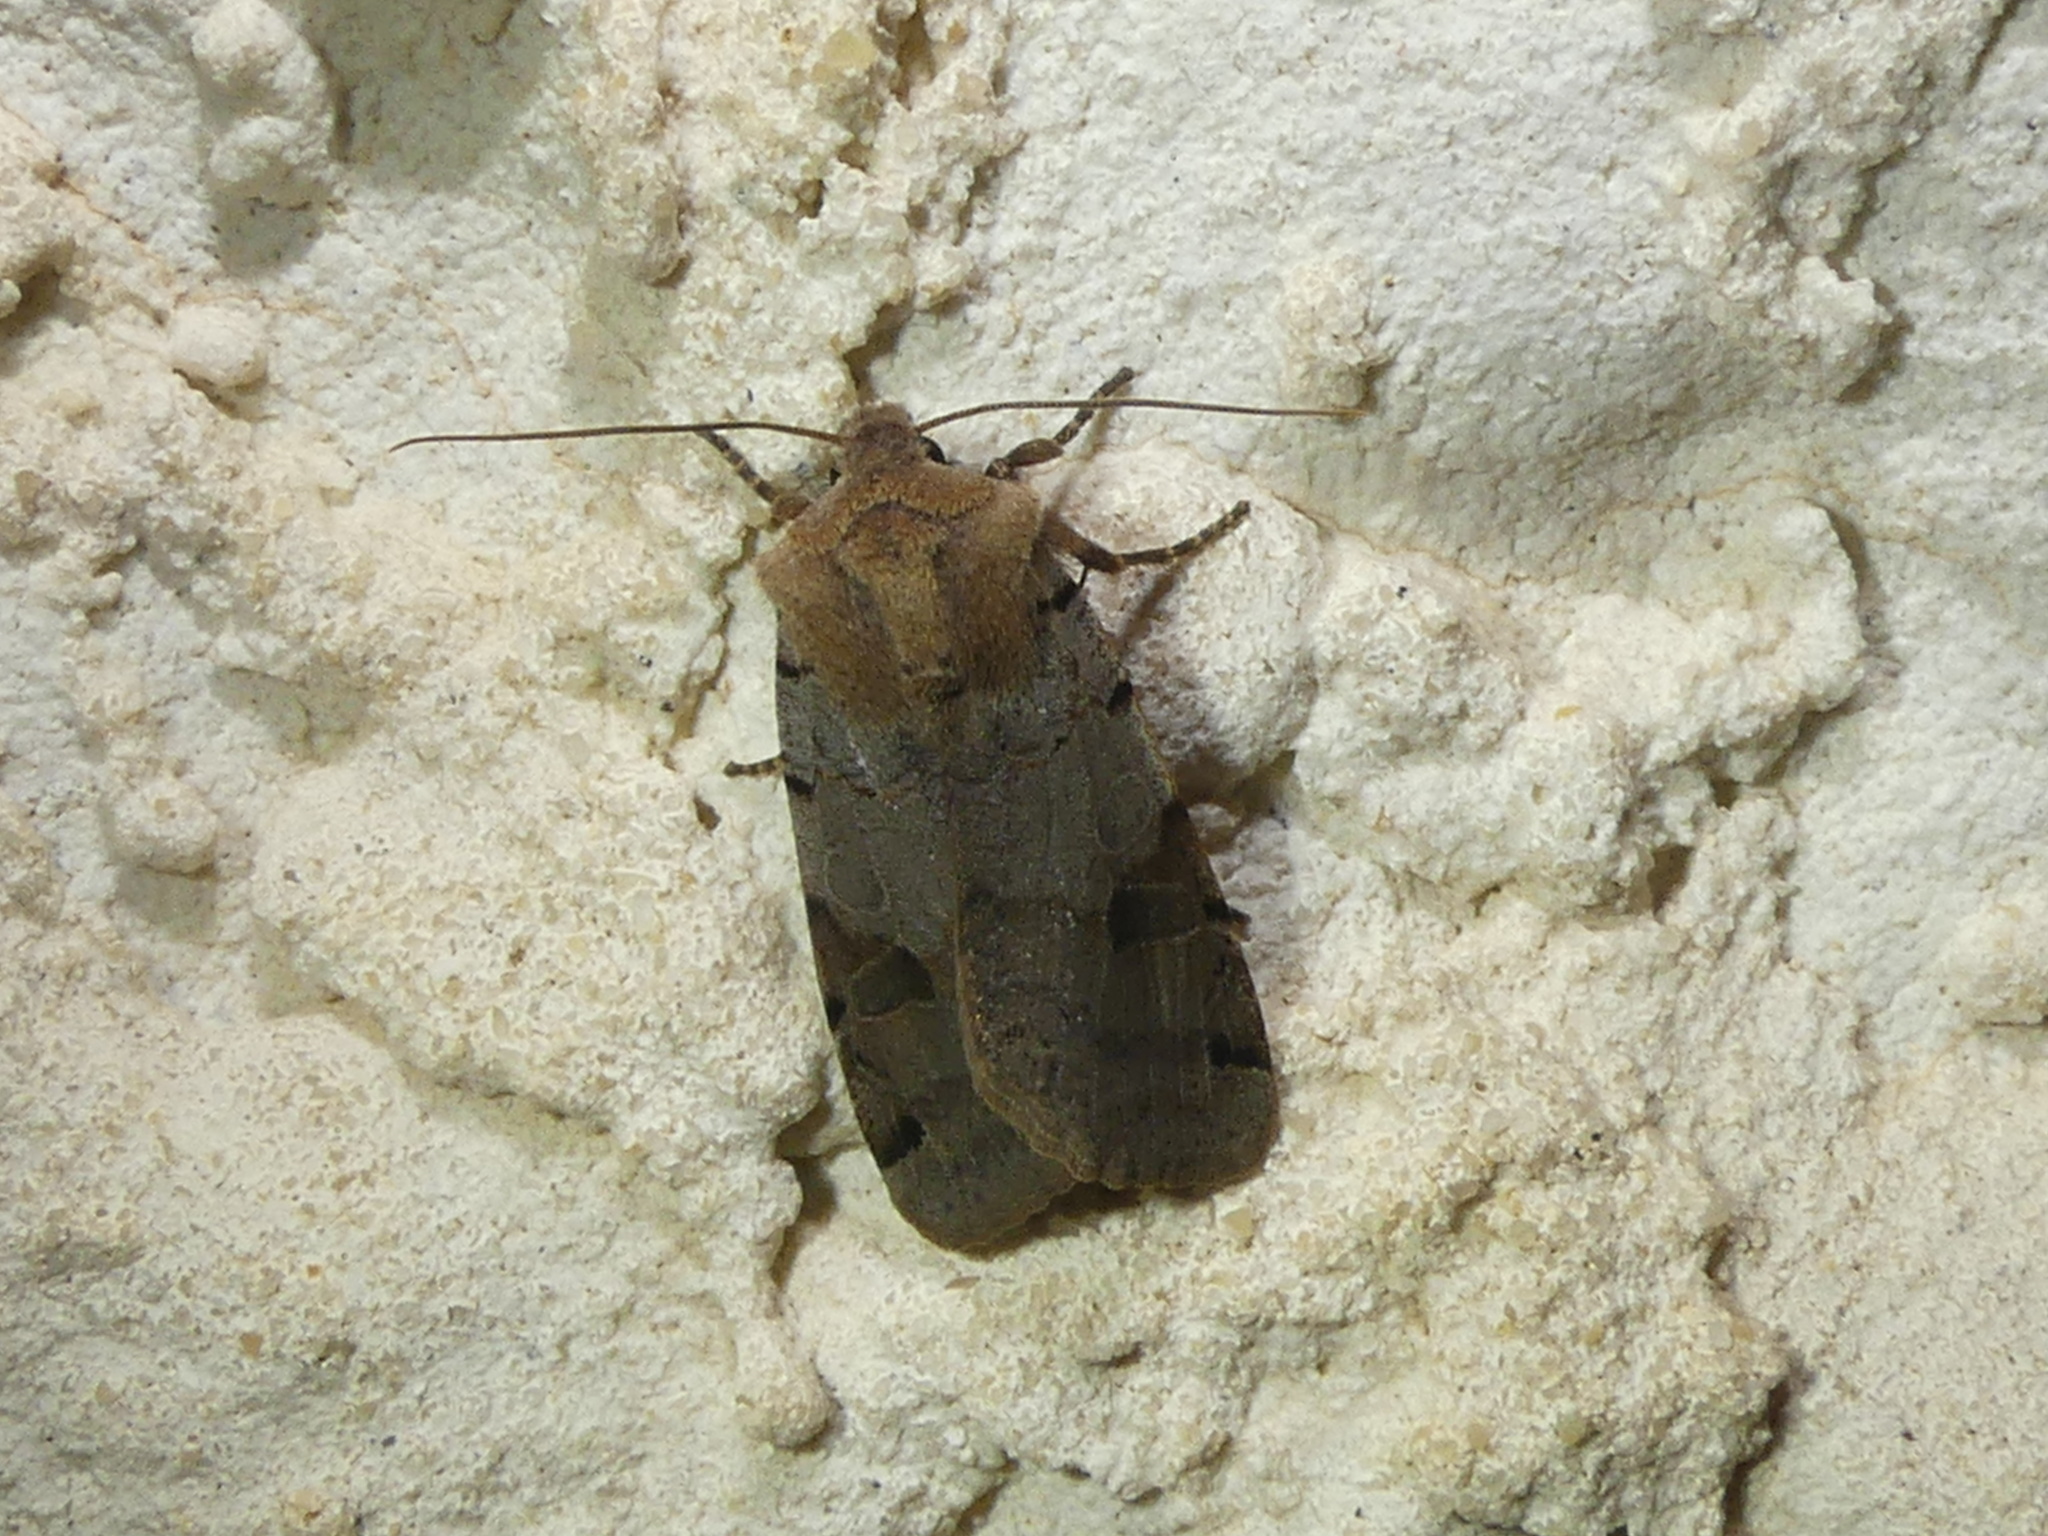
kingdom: Animalia
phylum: Arthropoda
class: Insecta
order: Lepidoptera
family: Noctuidae
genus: Agrochola
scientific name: Agrochola litura
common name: Brown-spot pinion
